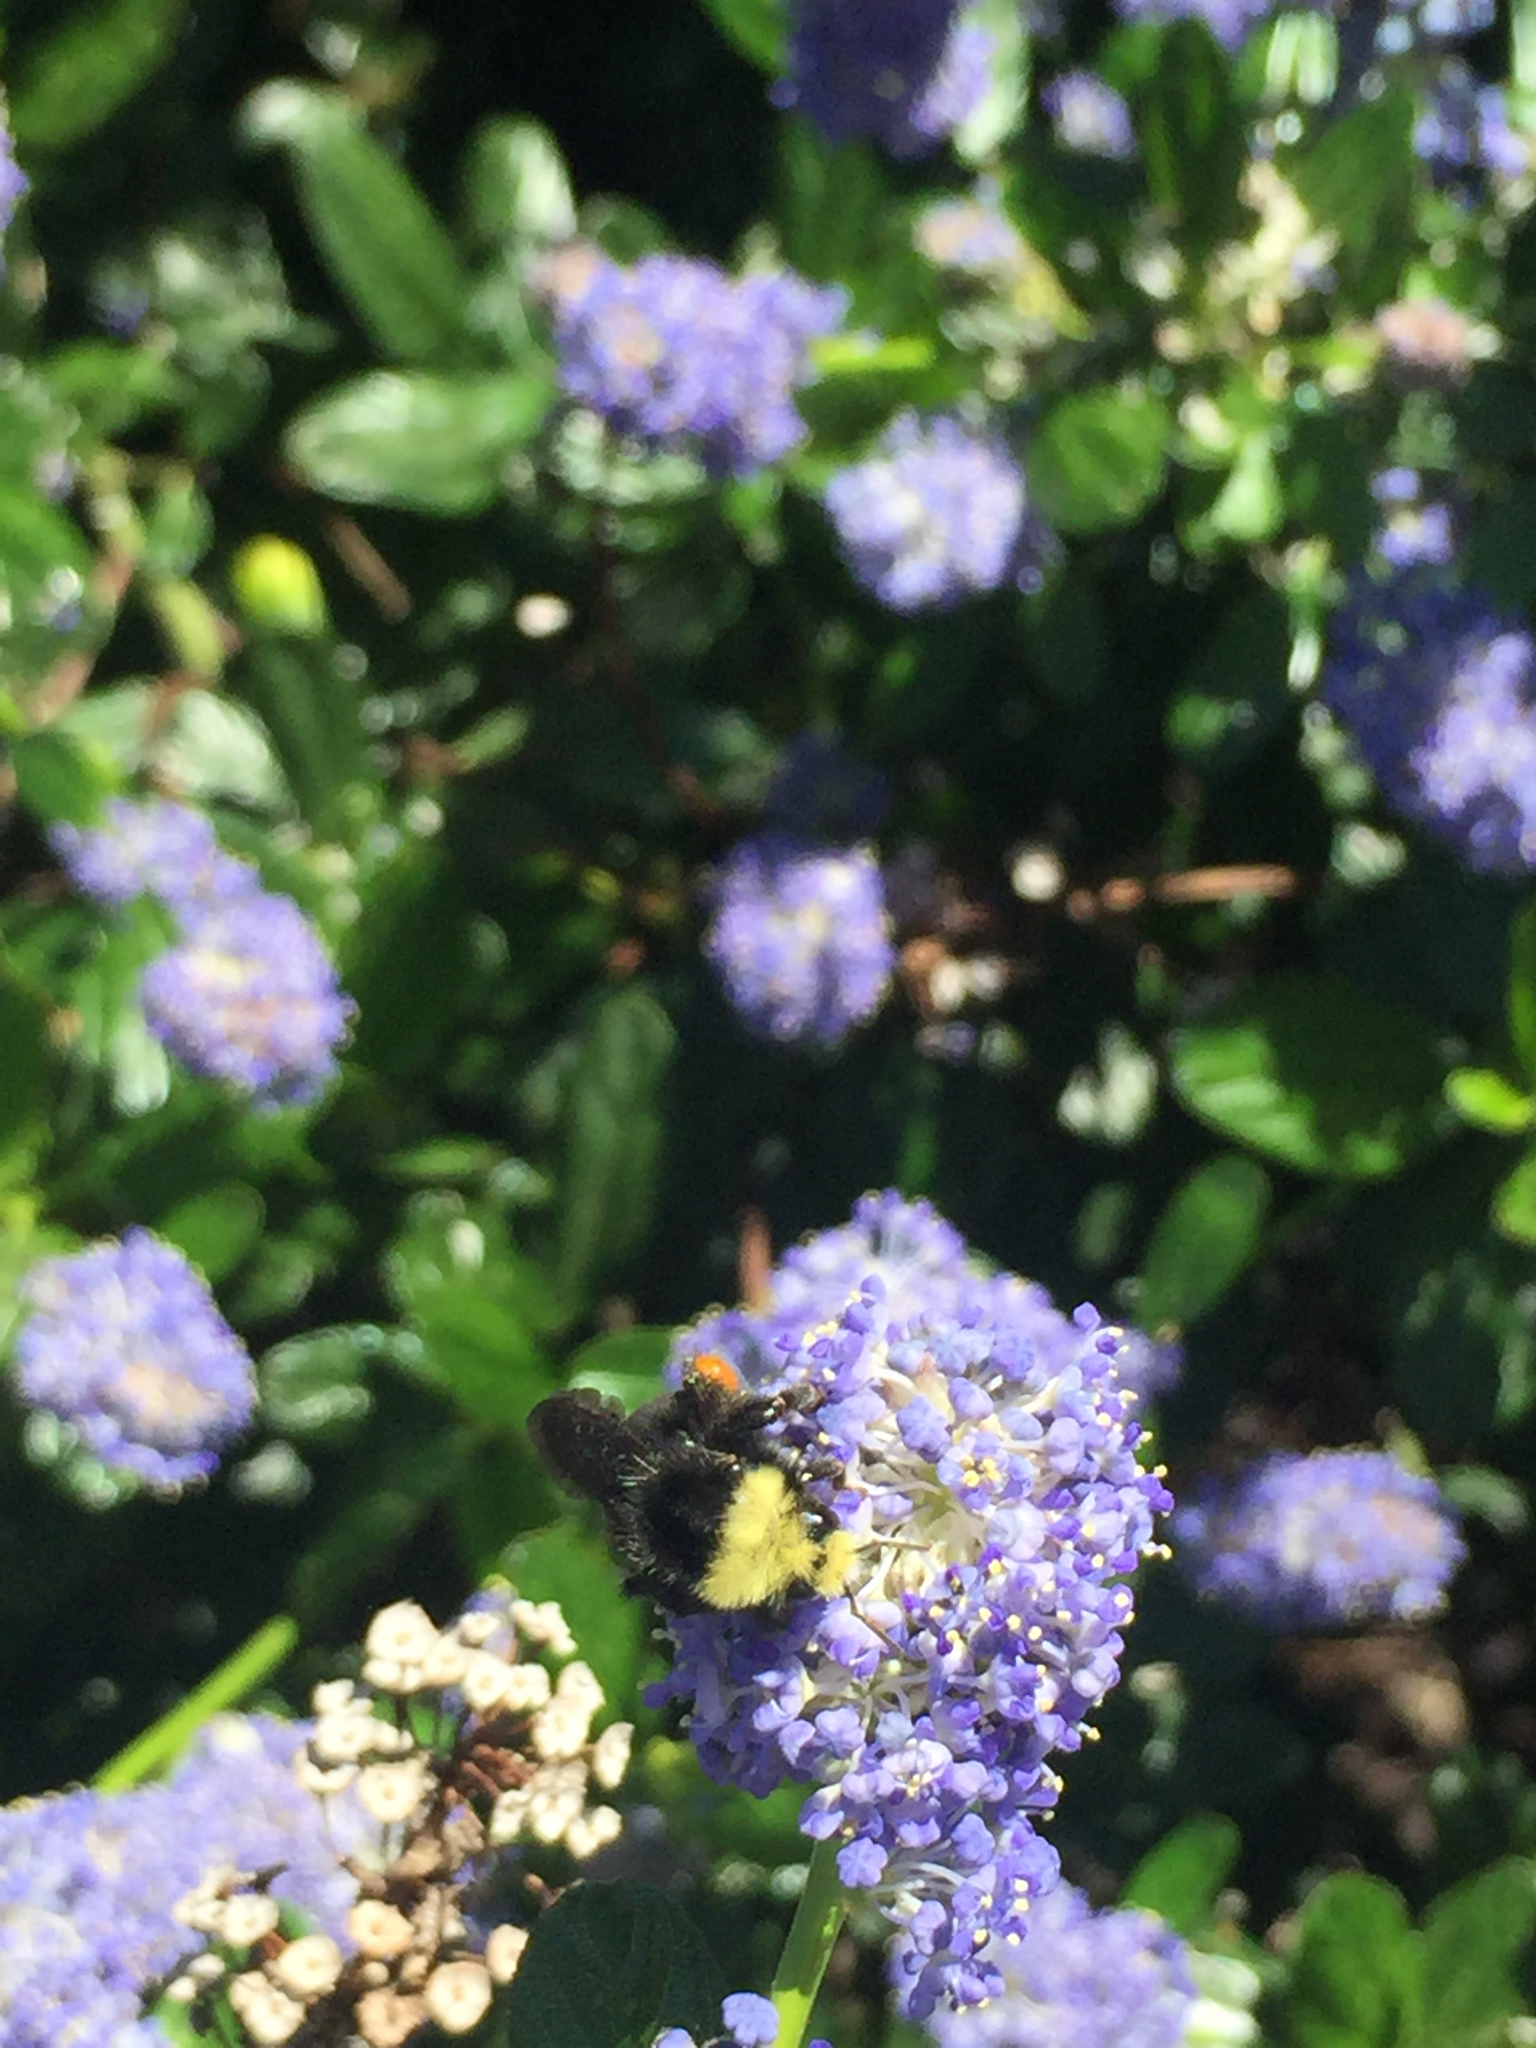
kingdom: Animalia
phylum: Arthropoda
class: Insecta
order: Hymenoptera
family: Apidae
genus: Bombus
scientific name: Bombus vosnesenskii
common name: Vosnesensky bumble bee
